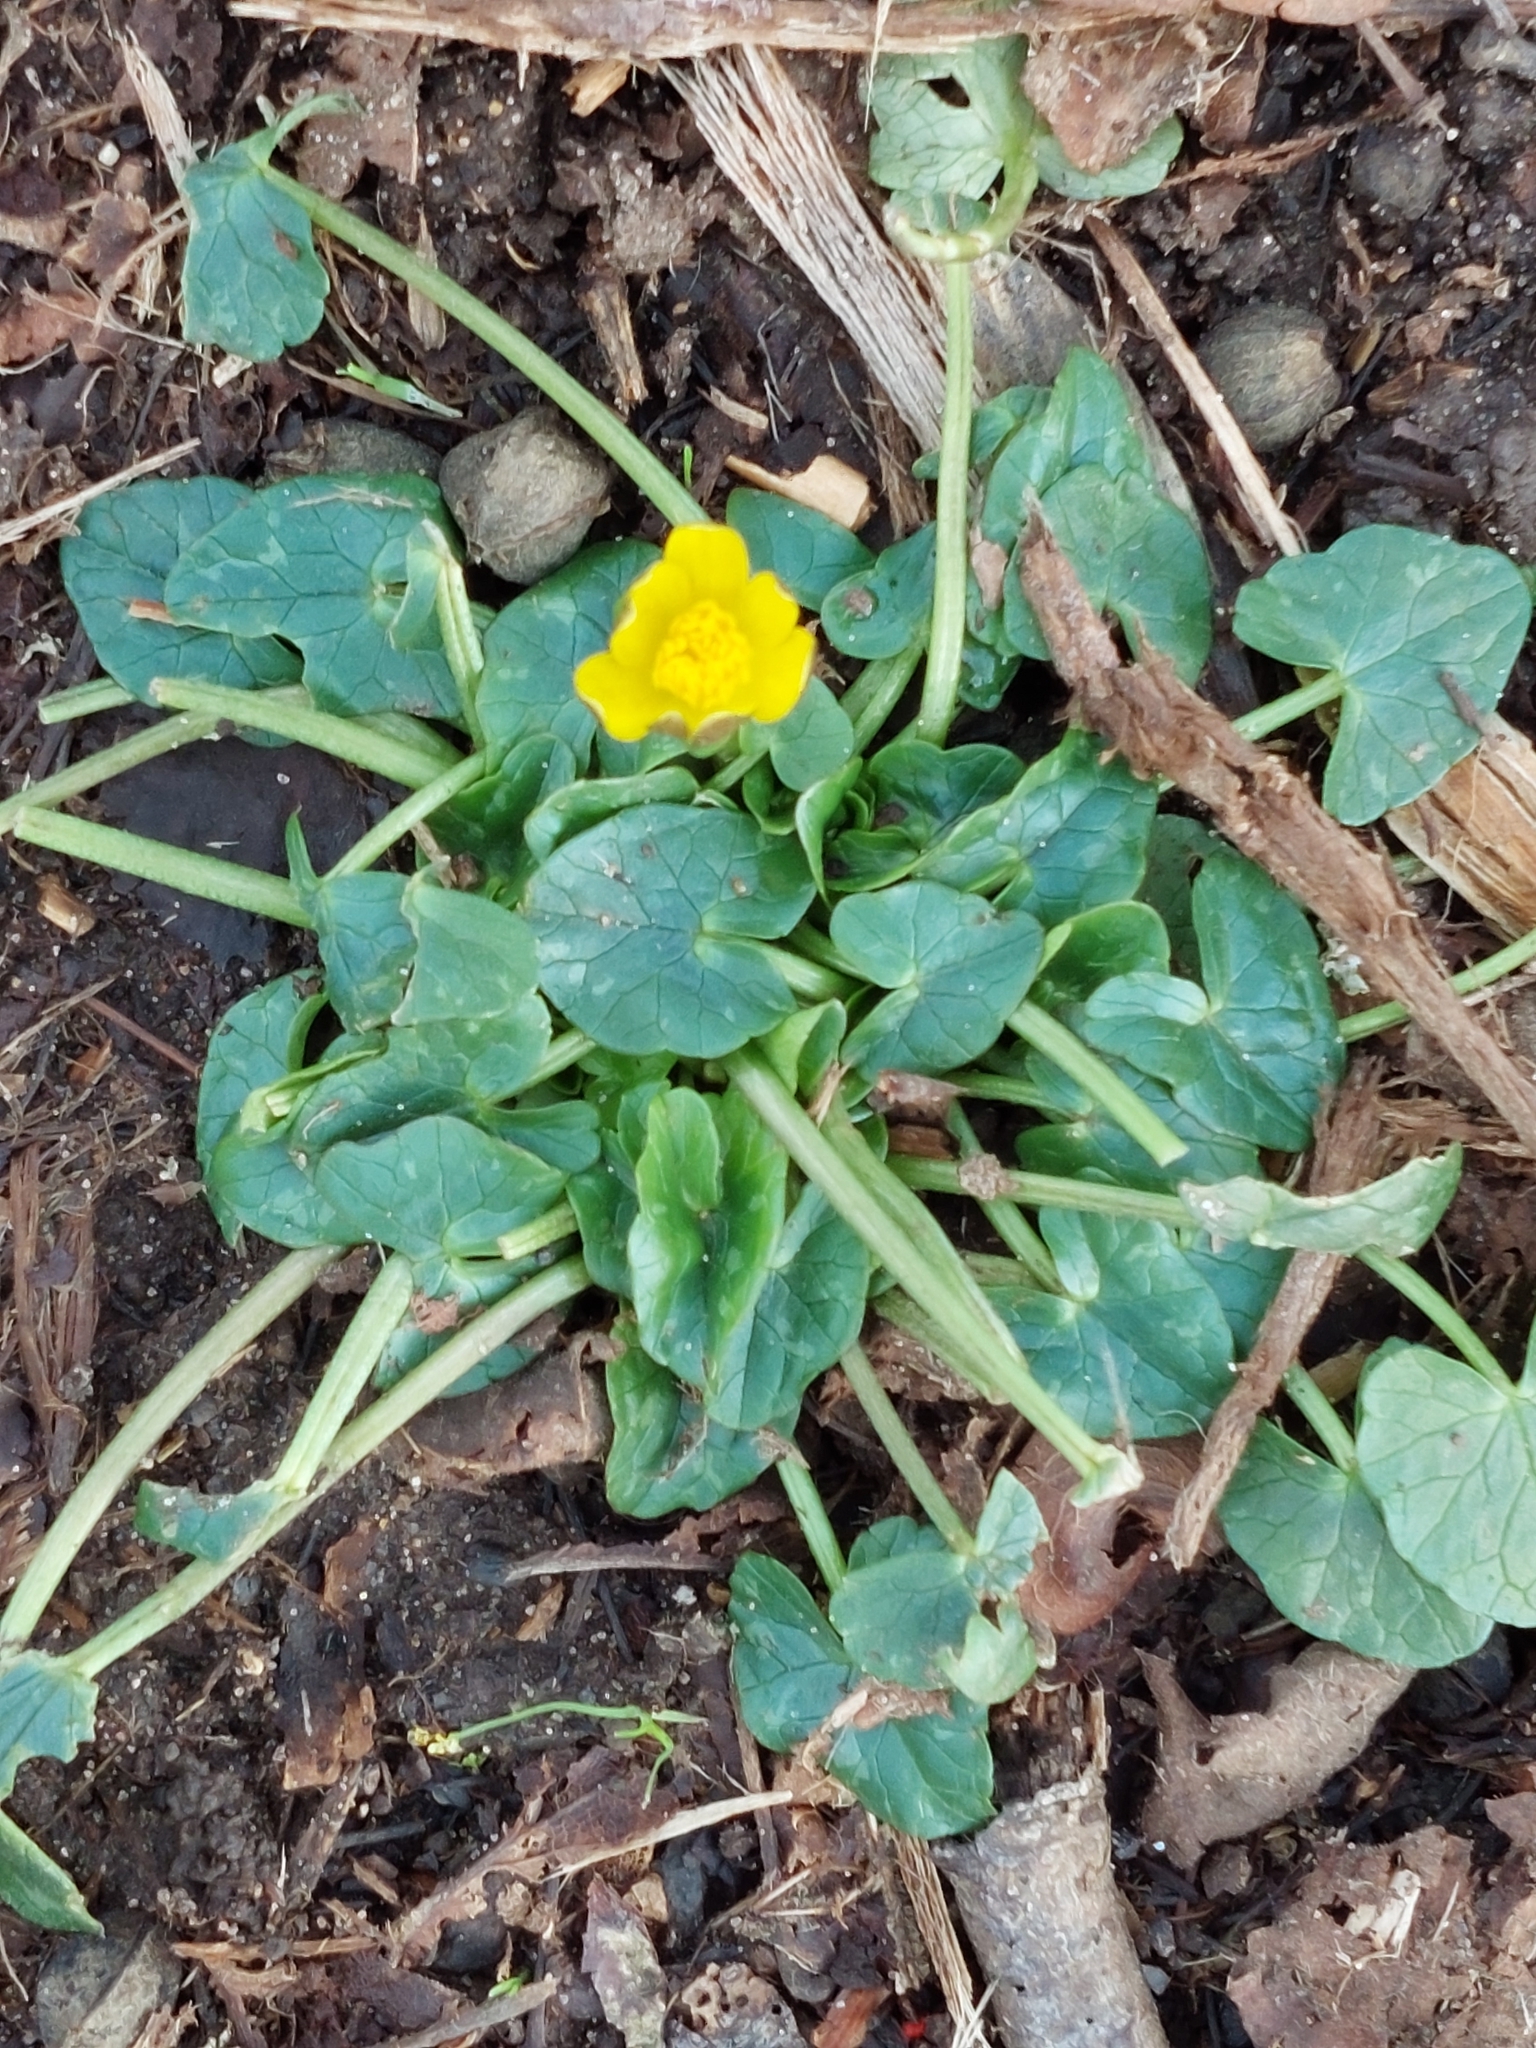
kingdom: Plantae
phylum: Tracheophyta
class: Magnoliopsida
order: Ranunculales
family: Ranunculaceae
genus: Ficaria
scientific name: Ficaria verna
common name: Lesser celandine
